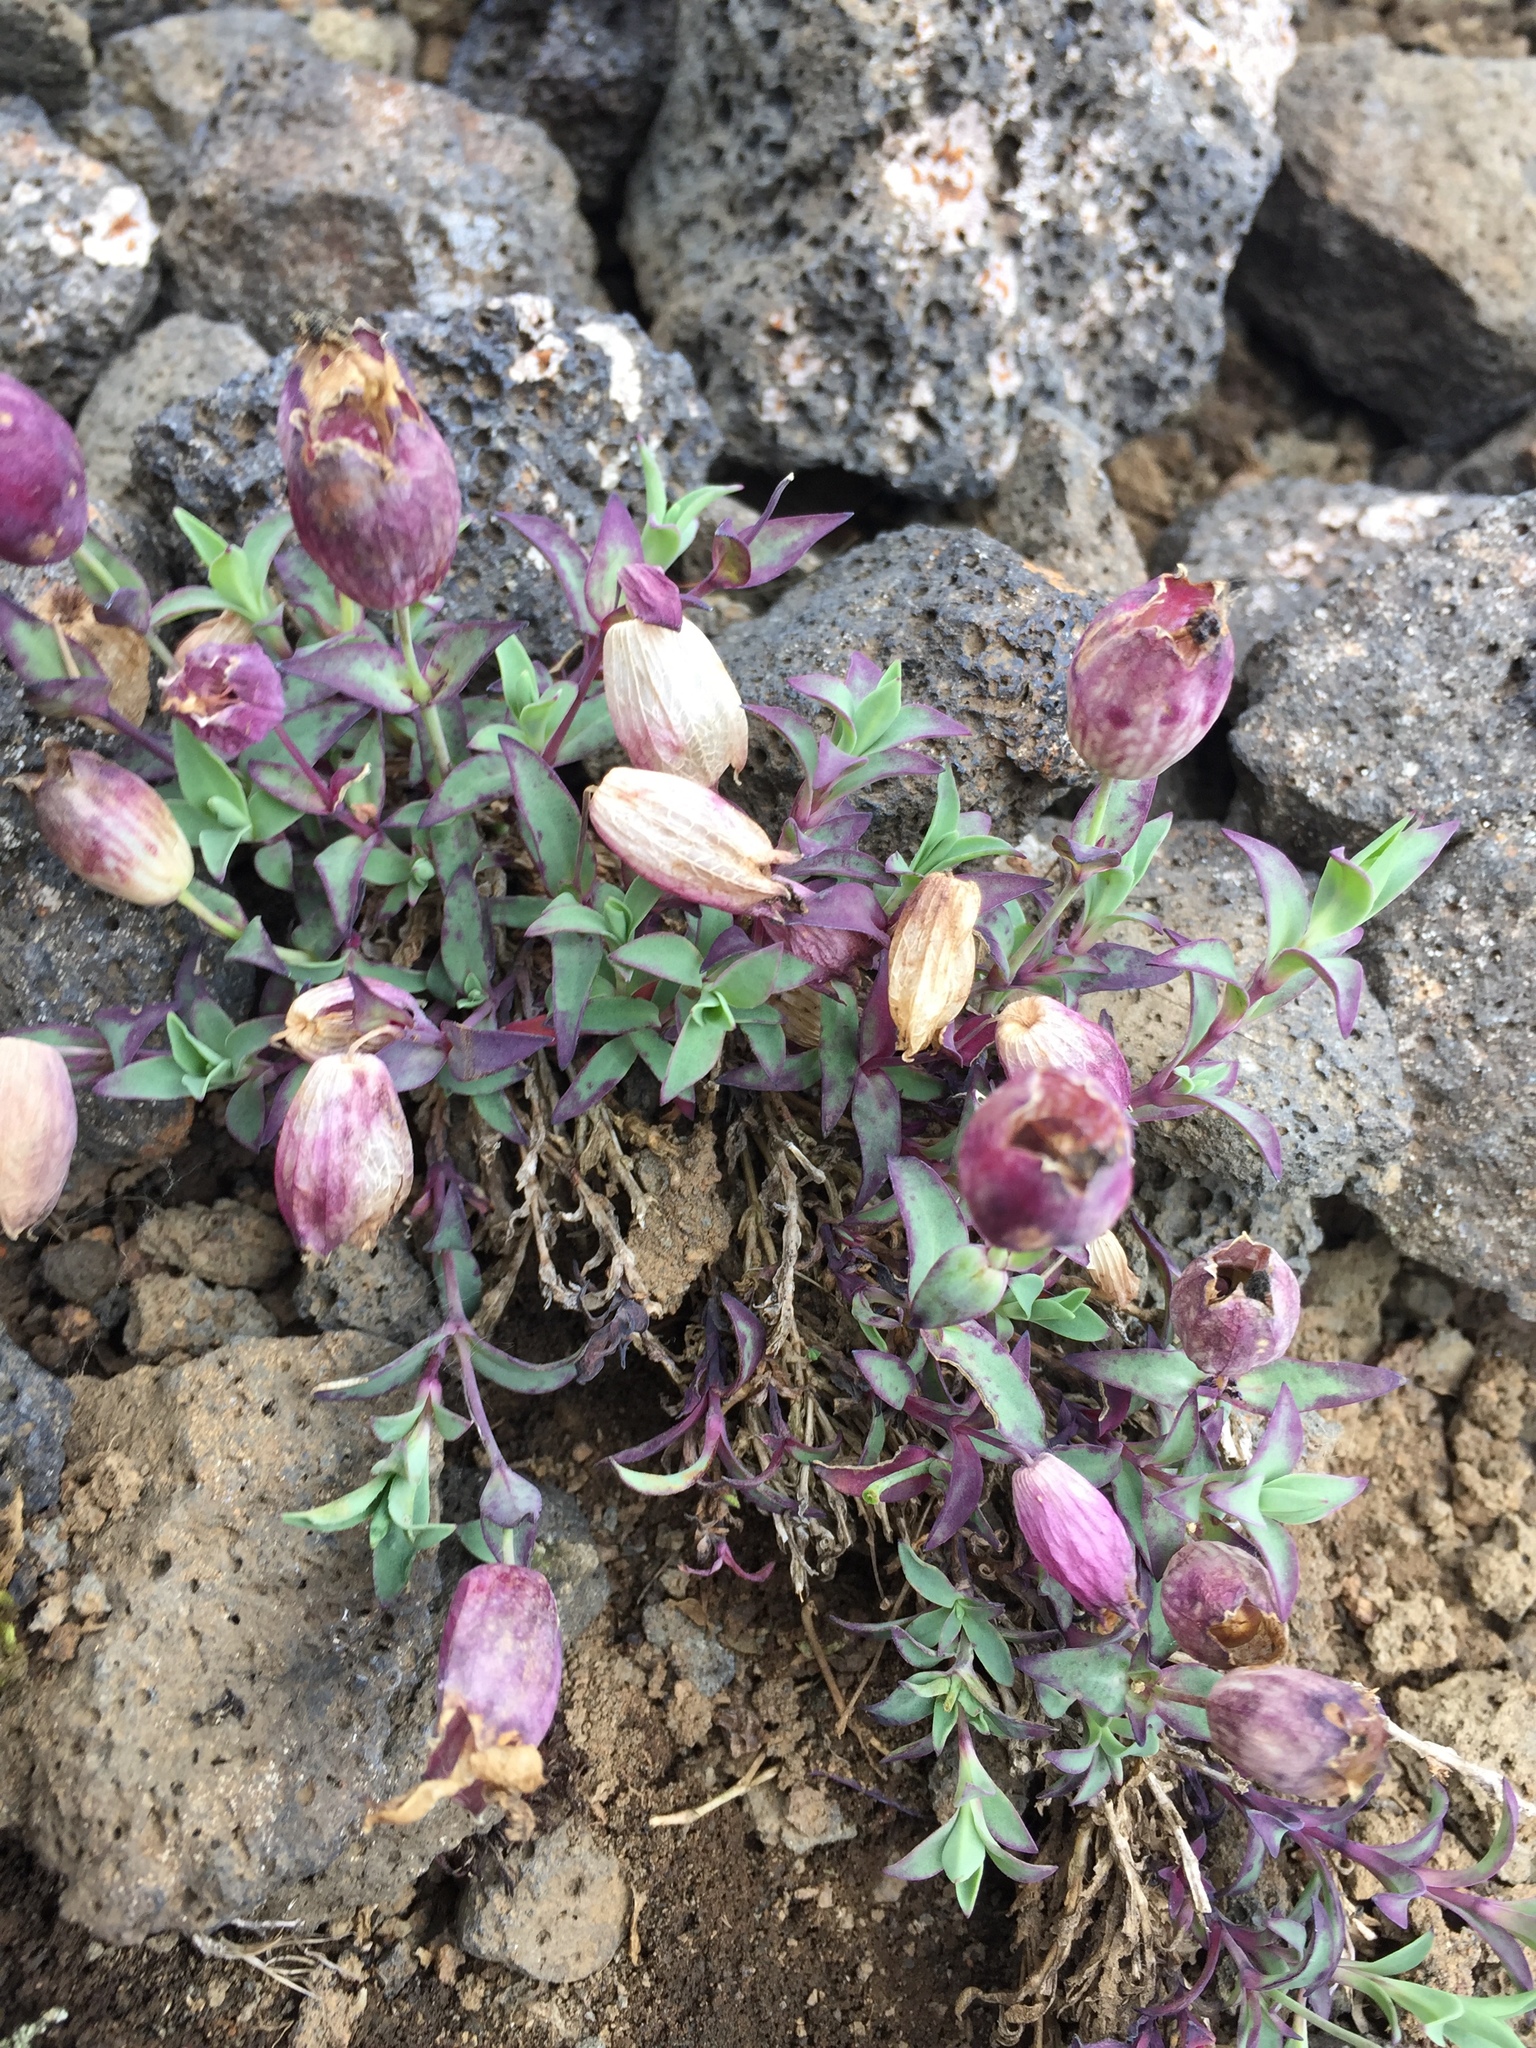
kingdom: Plantae
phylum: Tracheophyta
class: Magnoliopsida
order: Caryophyllales
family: Caryophyllaceae
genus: Silene
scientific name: Silene uniflora
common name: Sea campion
